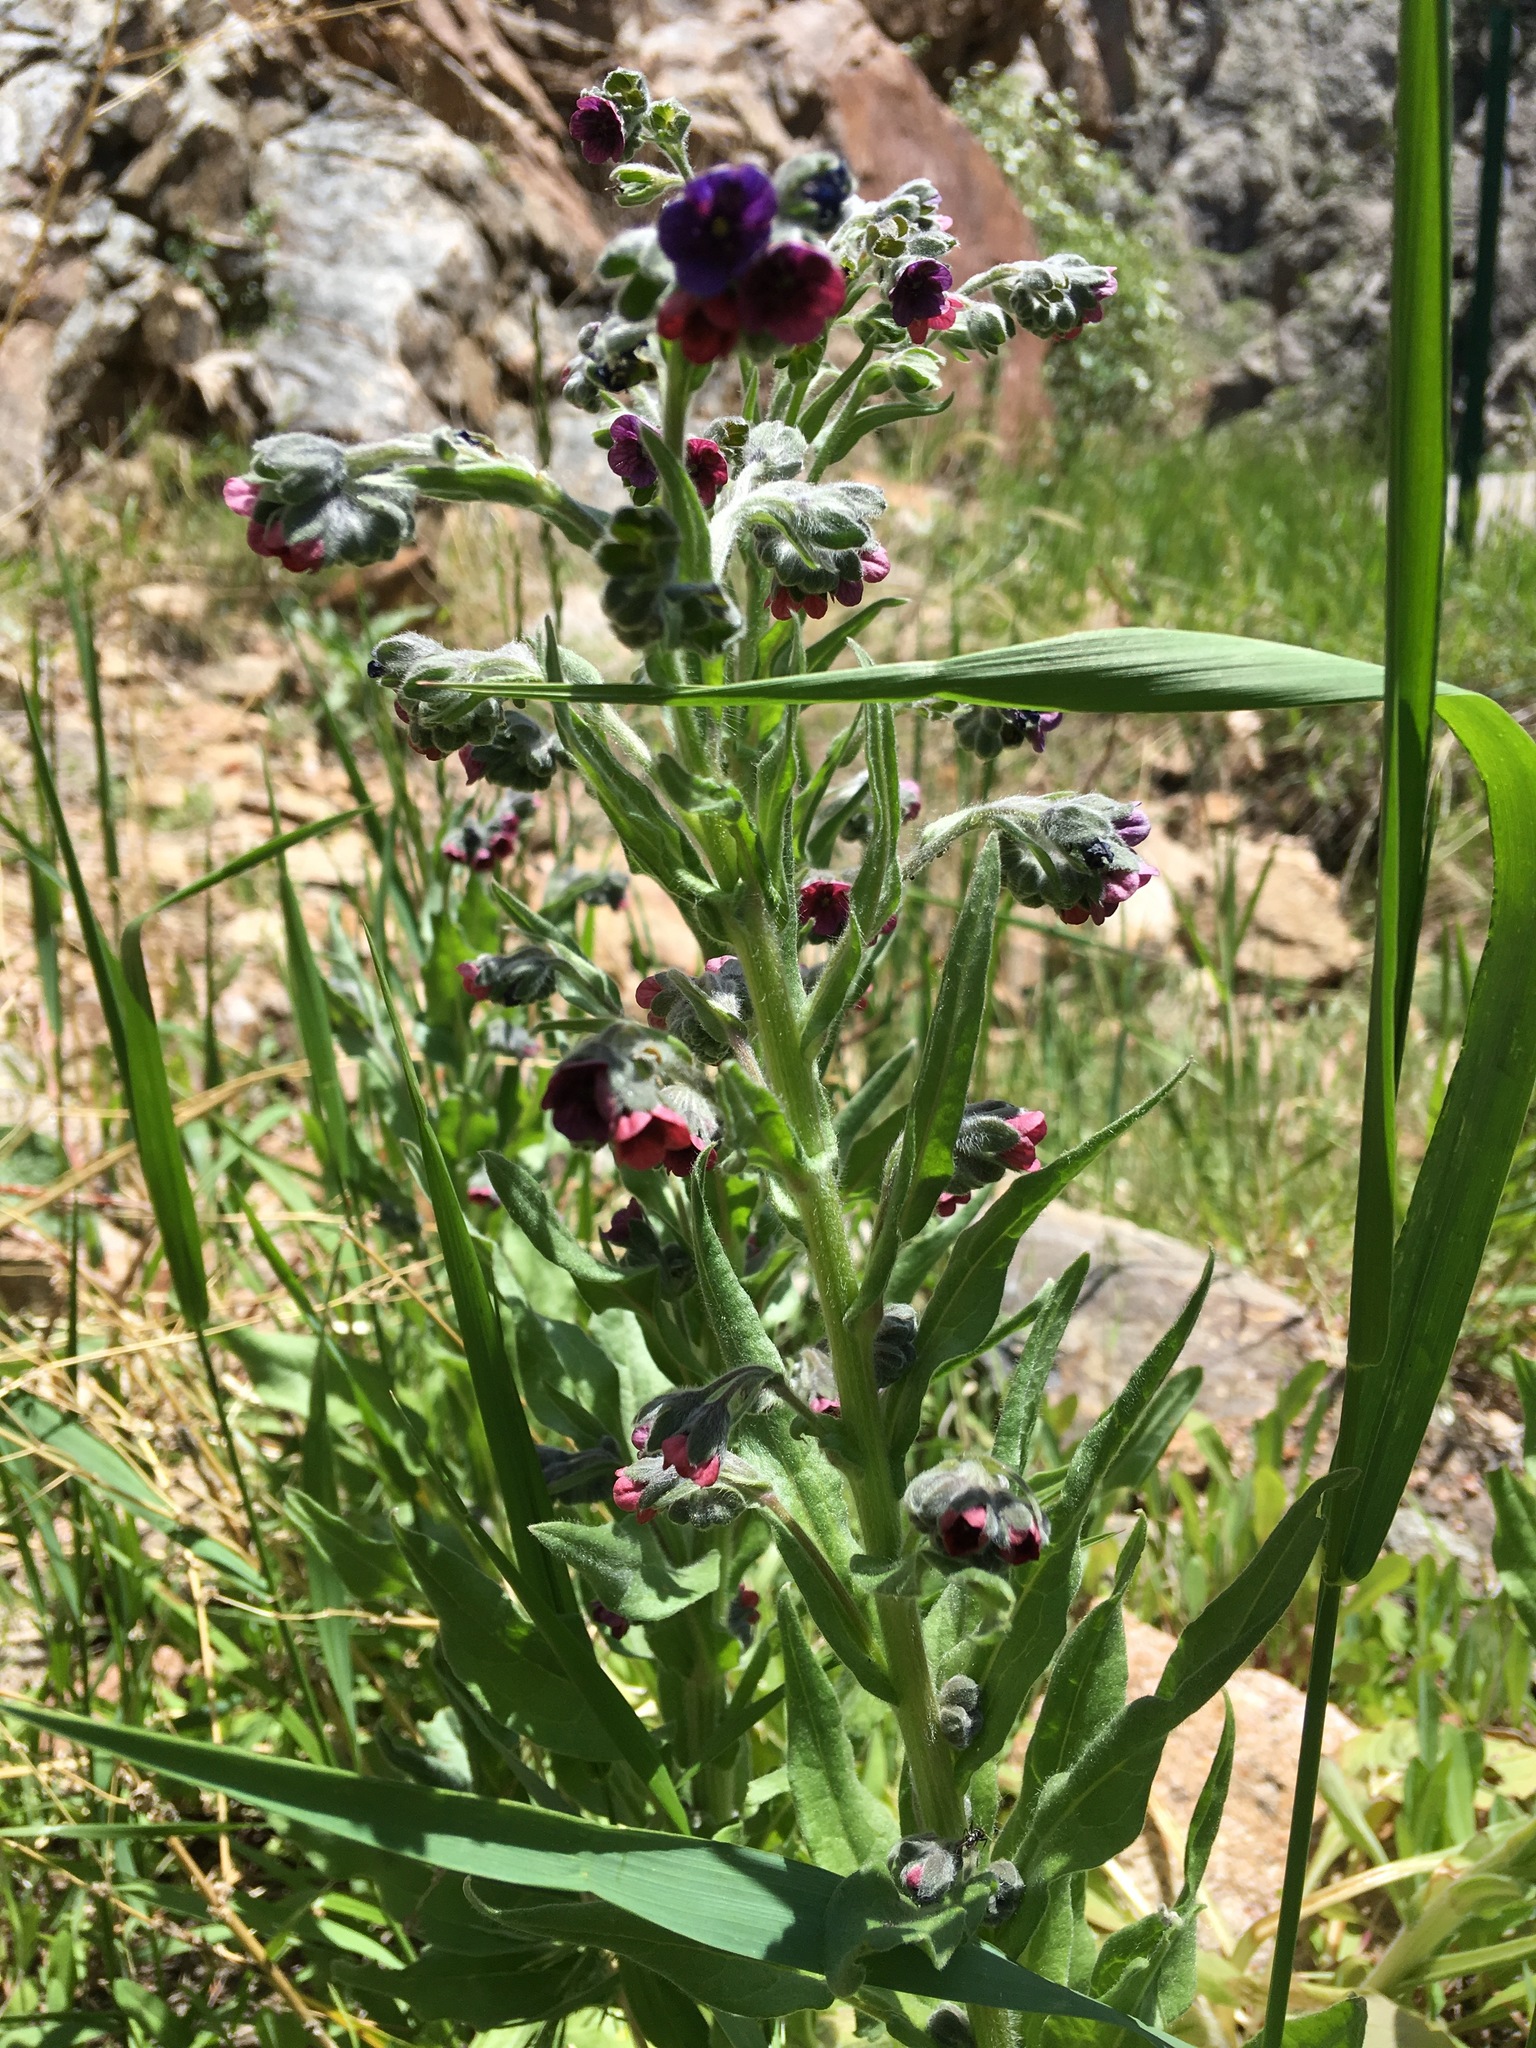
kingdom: Plantae
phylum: Tracheophyta
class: Magnoliopsida
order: Boraginales
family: Boraginaceae
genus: Cynoglossum
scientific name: Cynoglossum officinale
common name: Hound's-tongue
